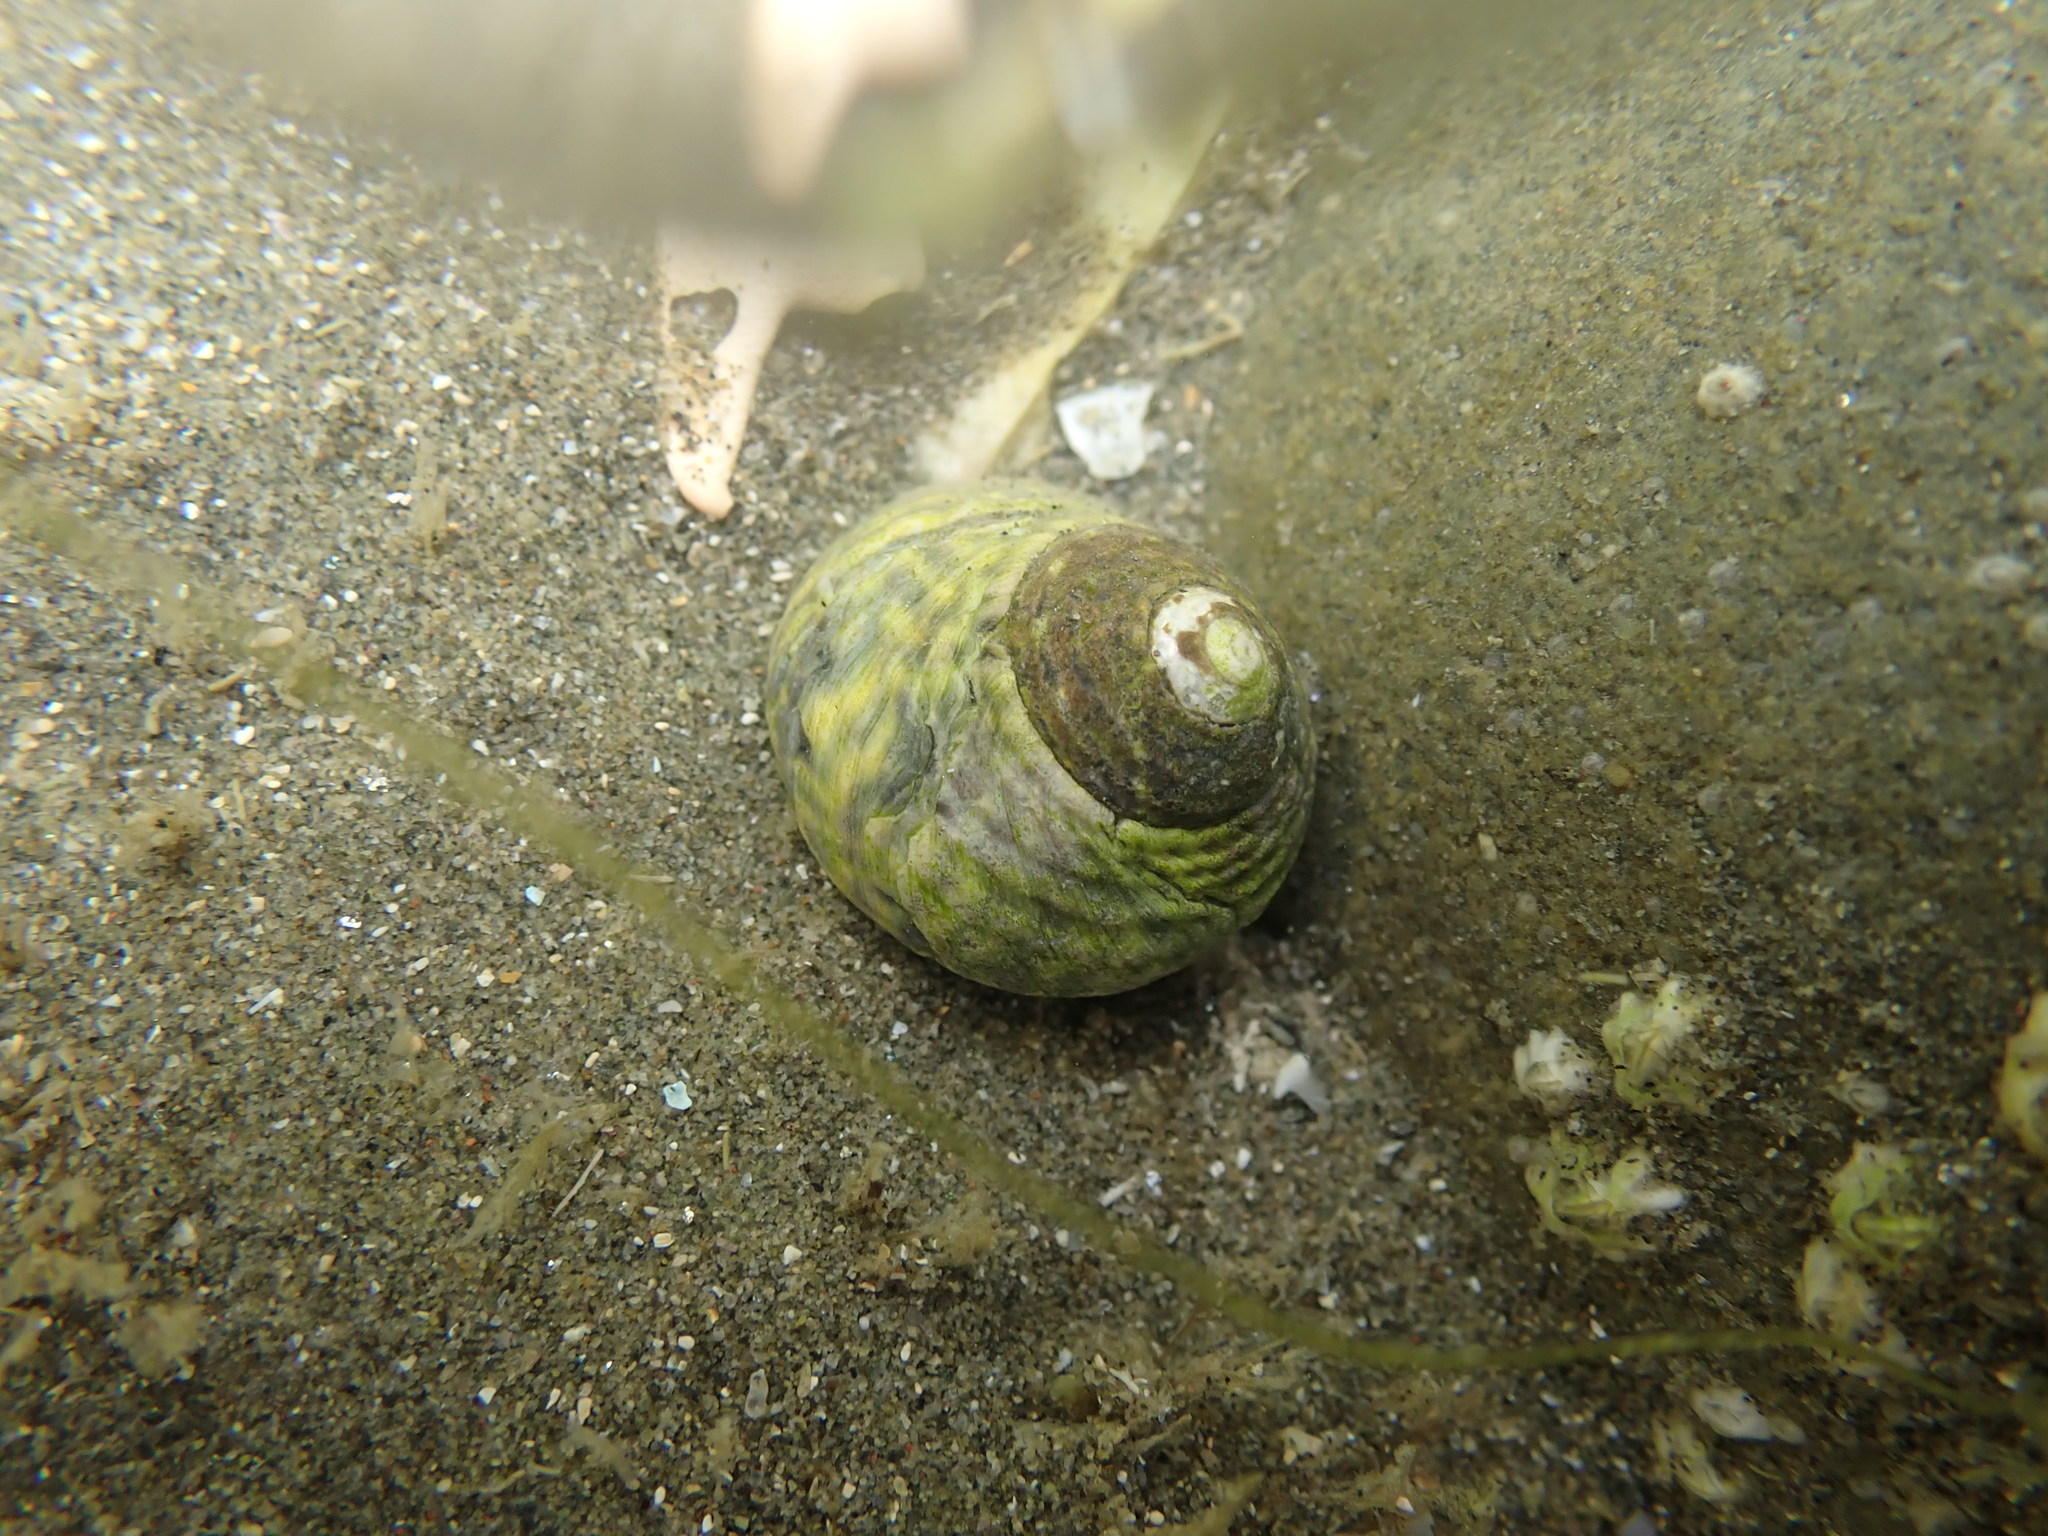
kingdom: Animalia
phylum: Mollusca
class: Gastropoda
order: Trochida
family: Trochidae
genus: Diloma
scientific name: Diloma subrostratum
